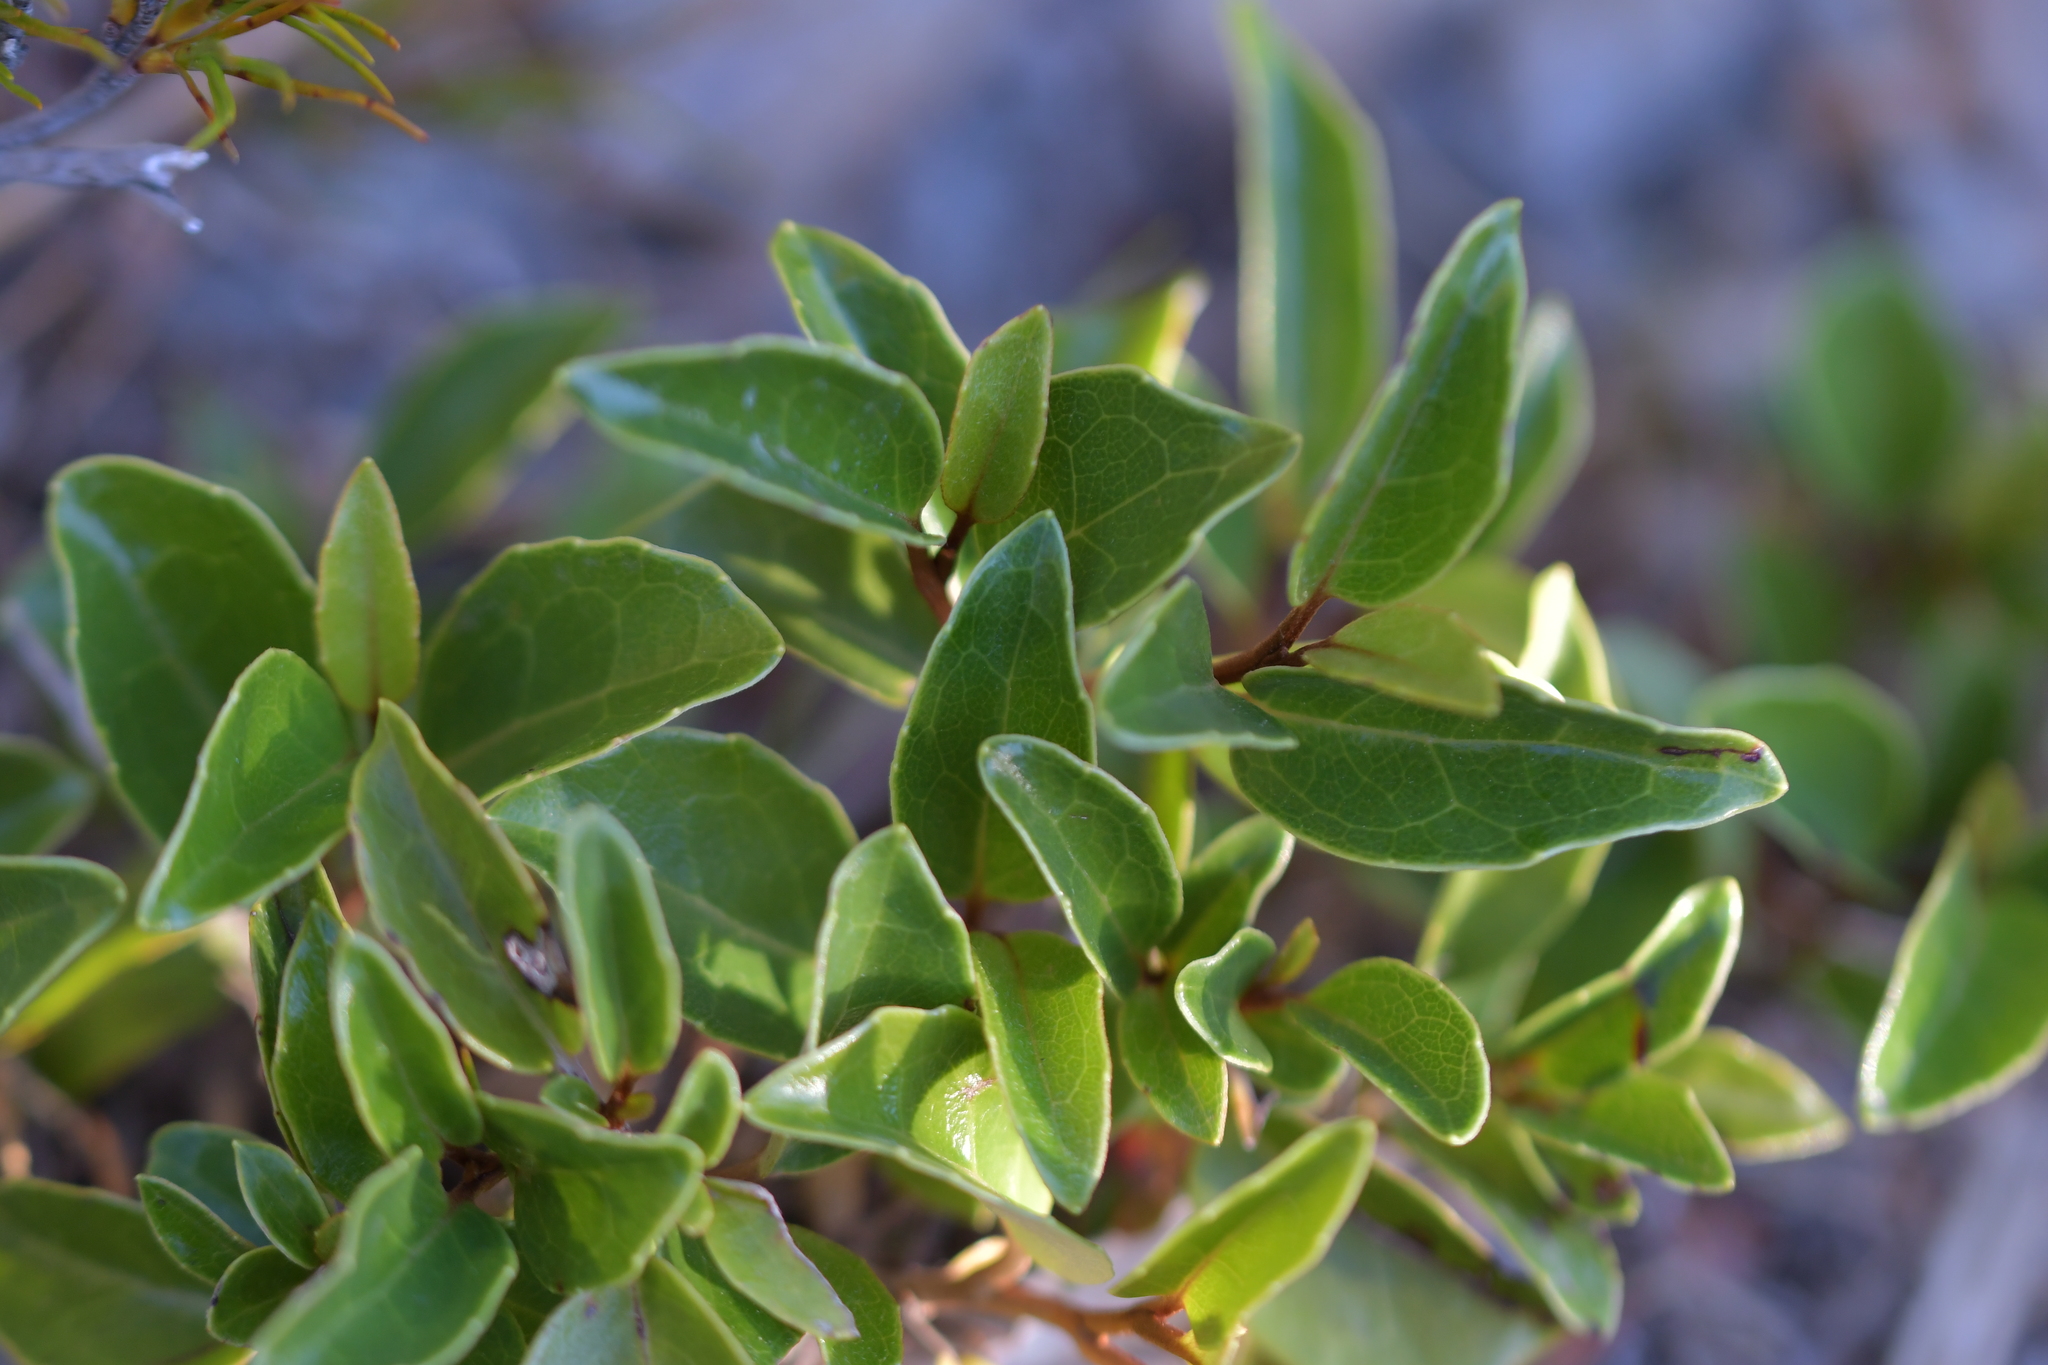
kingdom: Plantae
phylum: Tracheophyta
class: Magnoliopsida
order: Asterales
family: Asteraceae
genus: Olearia
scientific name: Olearia arborescens
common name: Glossy tree daisy
